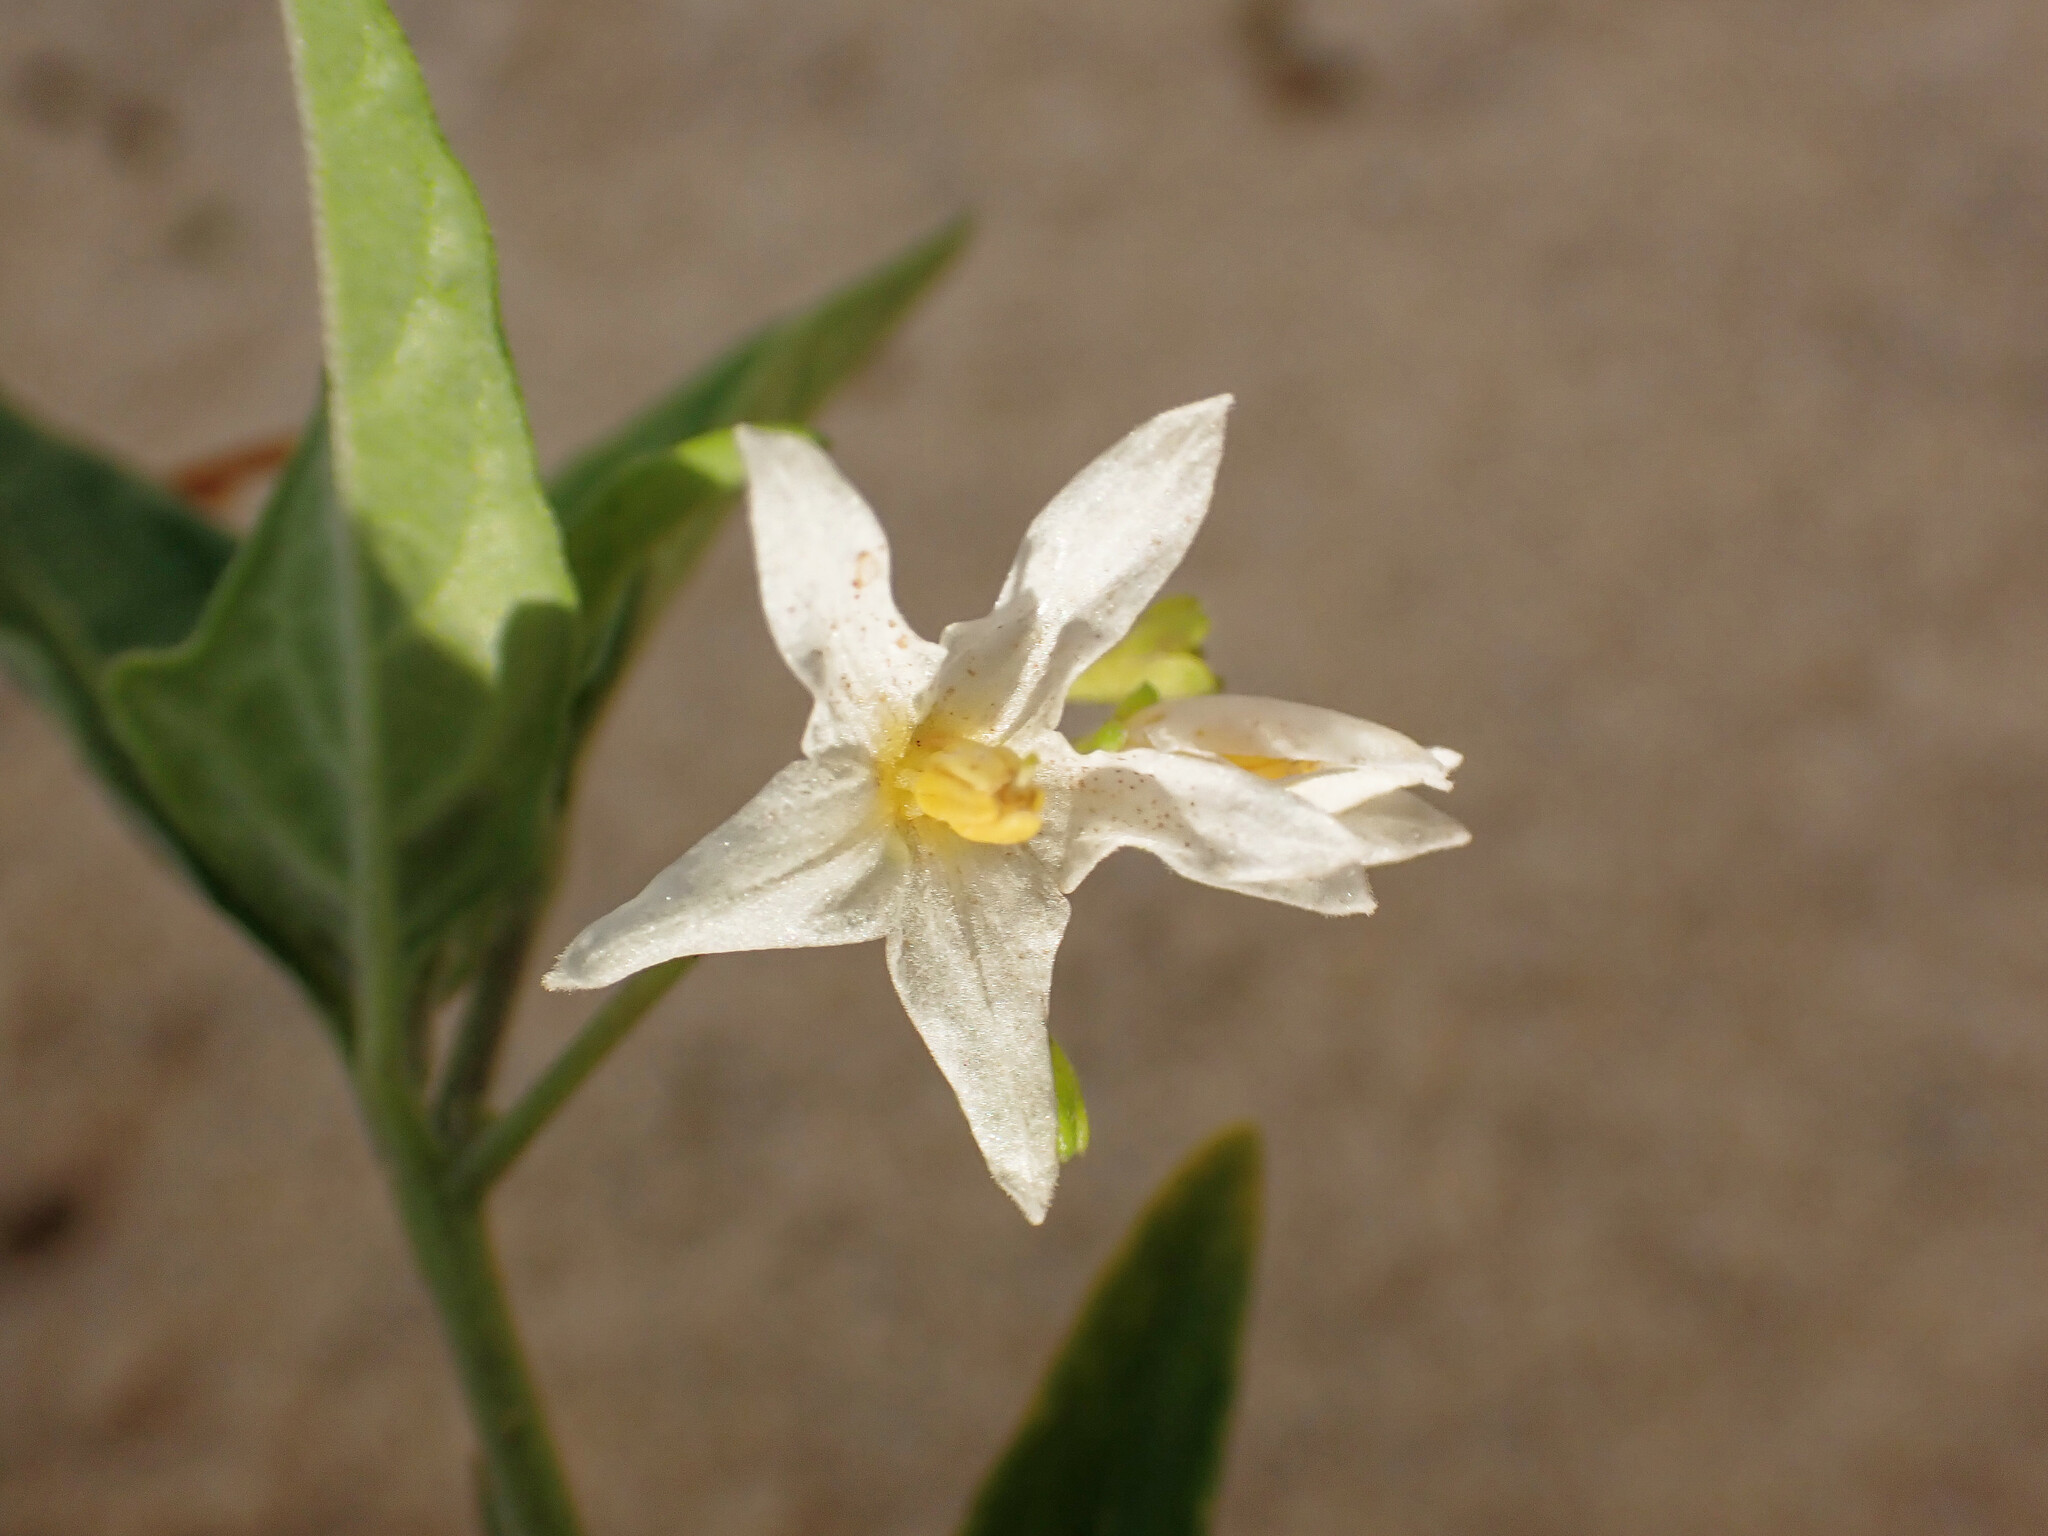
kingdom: Plantae
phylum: Tracheophyta
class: Magnoliopsida
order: Solanales
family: Solanaceae
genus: Solanum
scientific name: Solanum chenopodioides
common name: Tall nightshade
